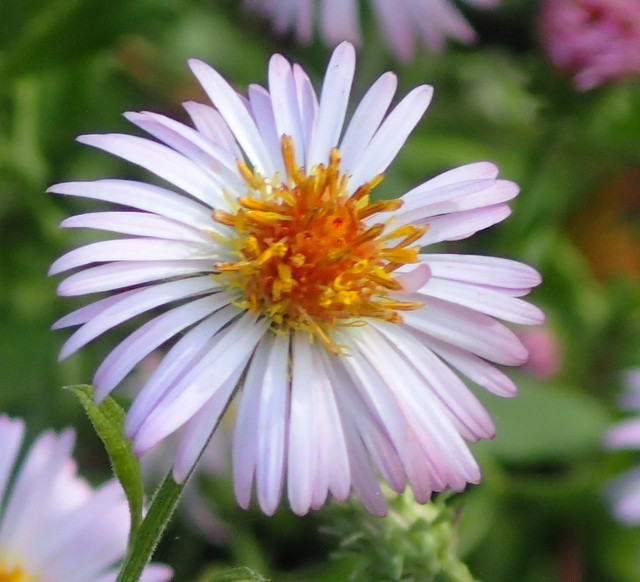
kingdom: Plantae
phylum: Tracheophyta
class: Magnoliopsida
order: Asterales
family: Asteraceae
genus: Ampelaster
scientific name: Ampelaster carolinianus
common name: Climbing aster
